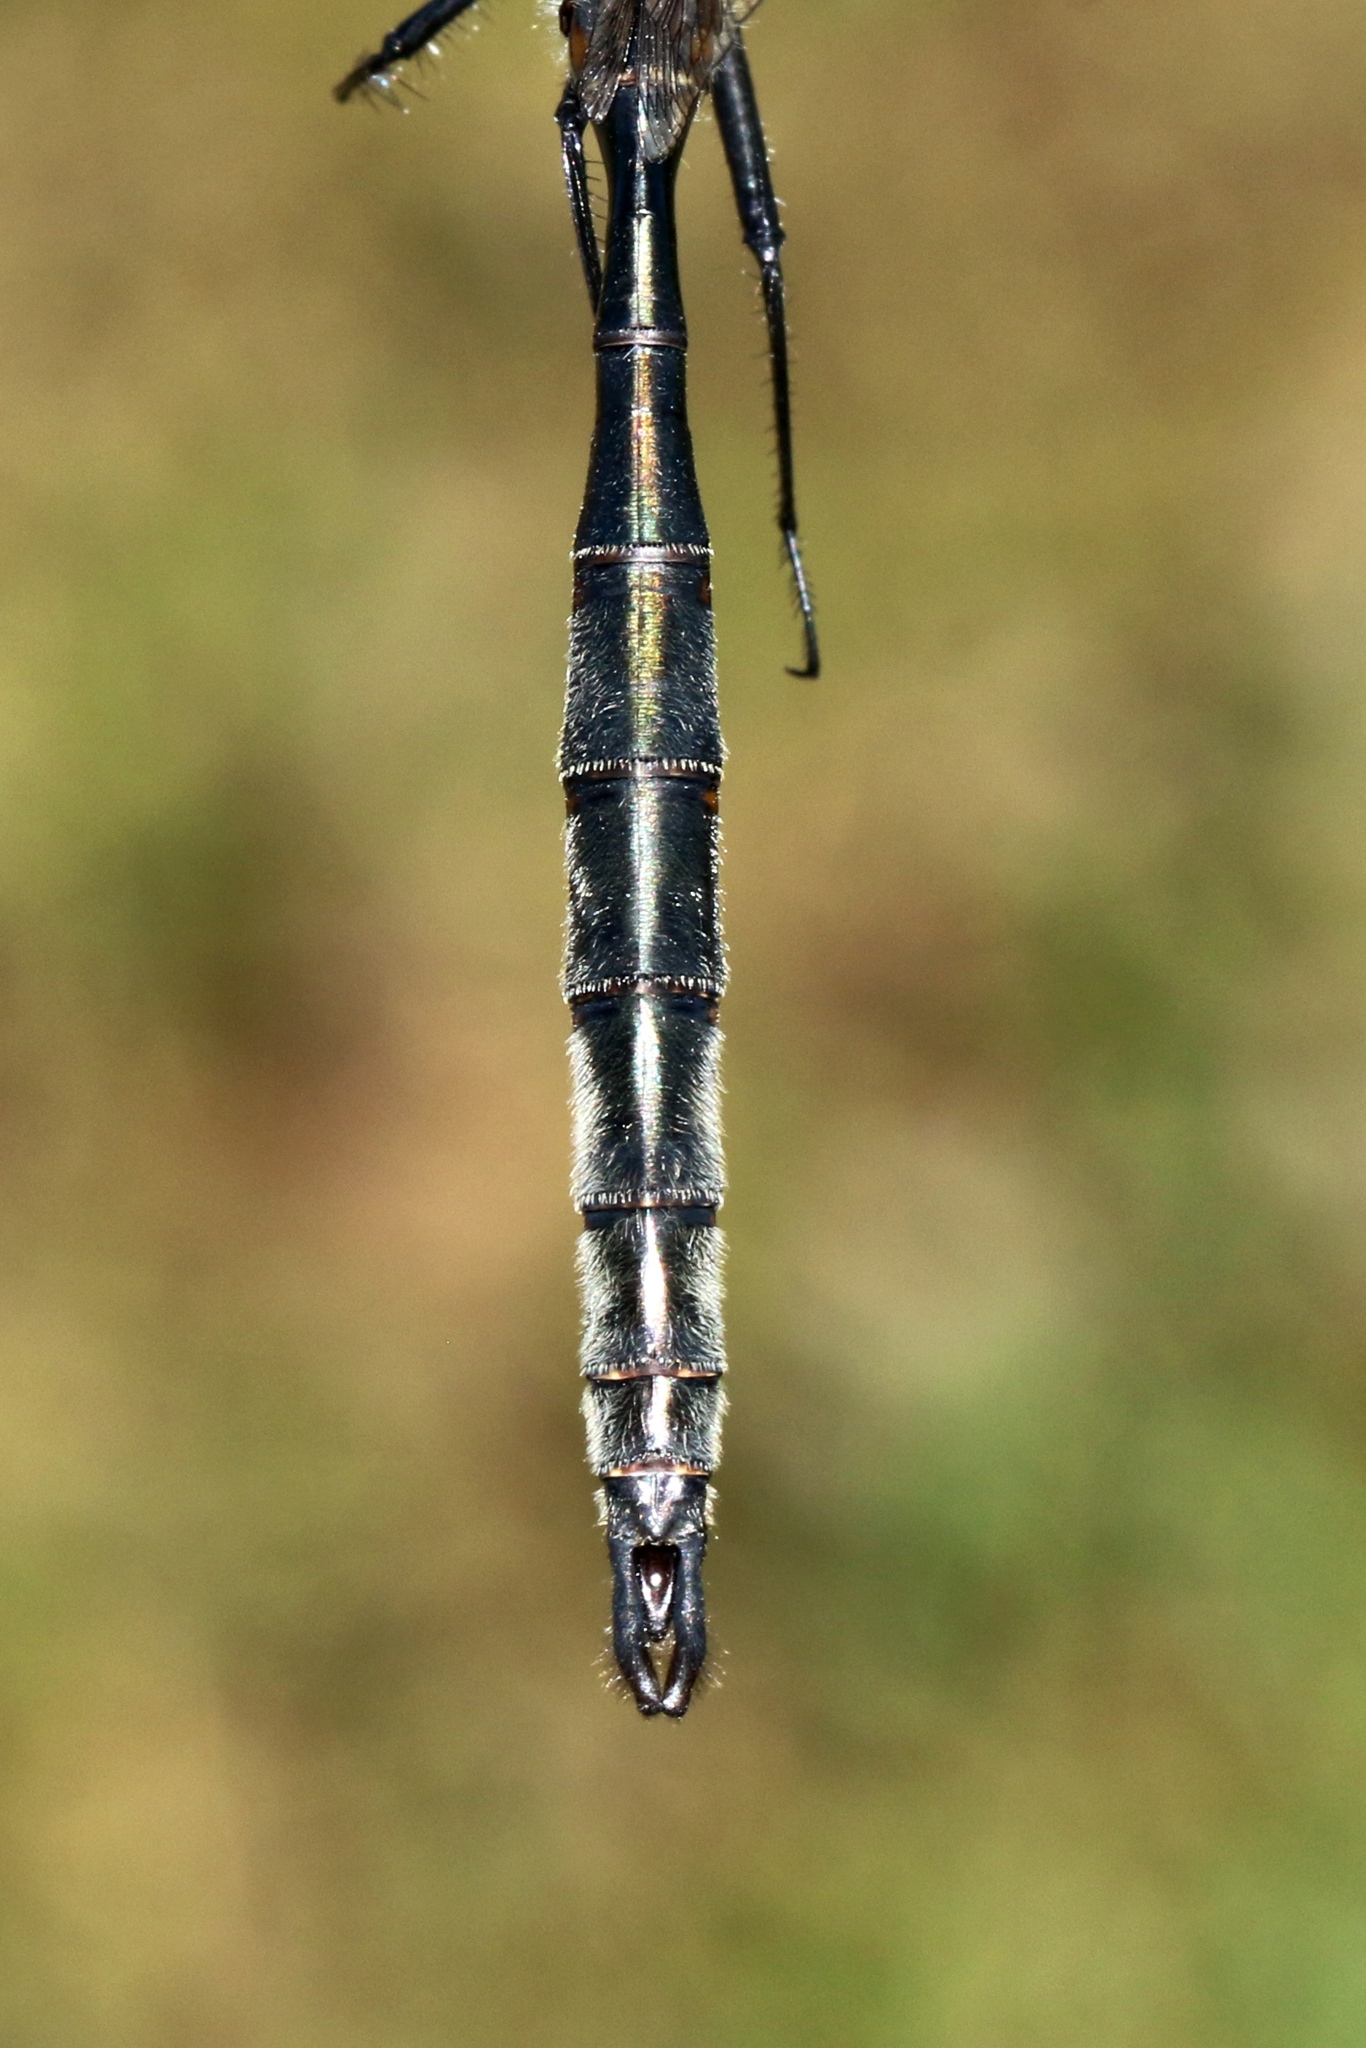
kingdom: Animalia
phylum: Arthropoda
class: Insecta
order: Odonata
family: Corduliidae
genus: Somatochlora
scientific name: Somatochlora williamsoni
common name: Williamson's emerald
